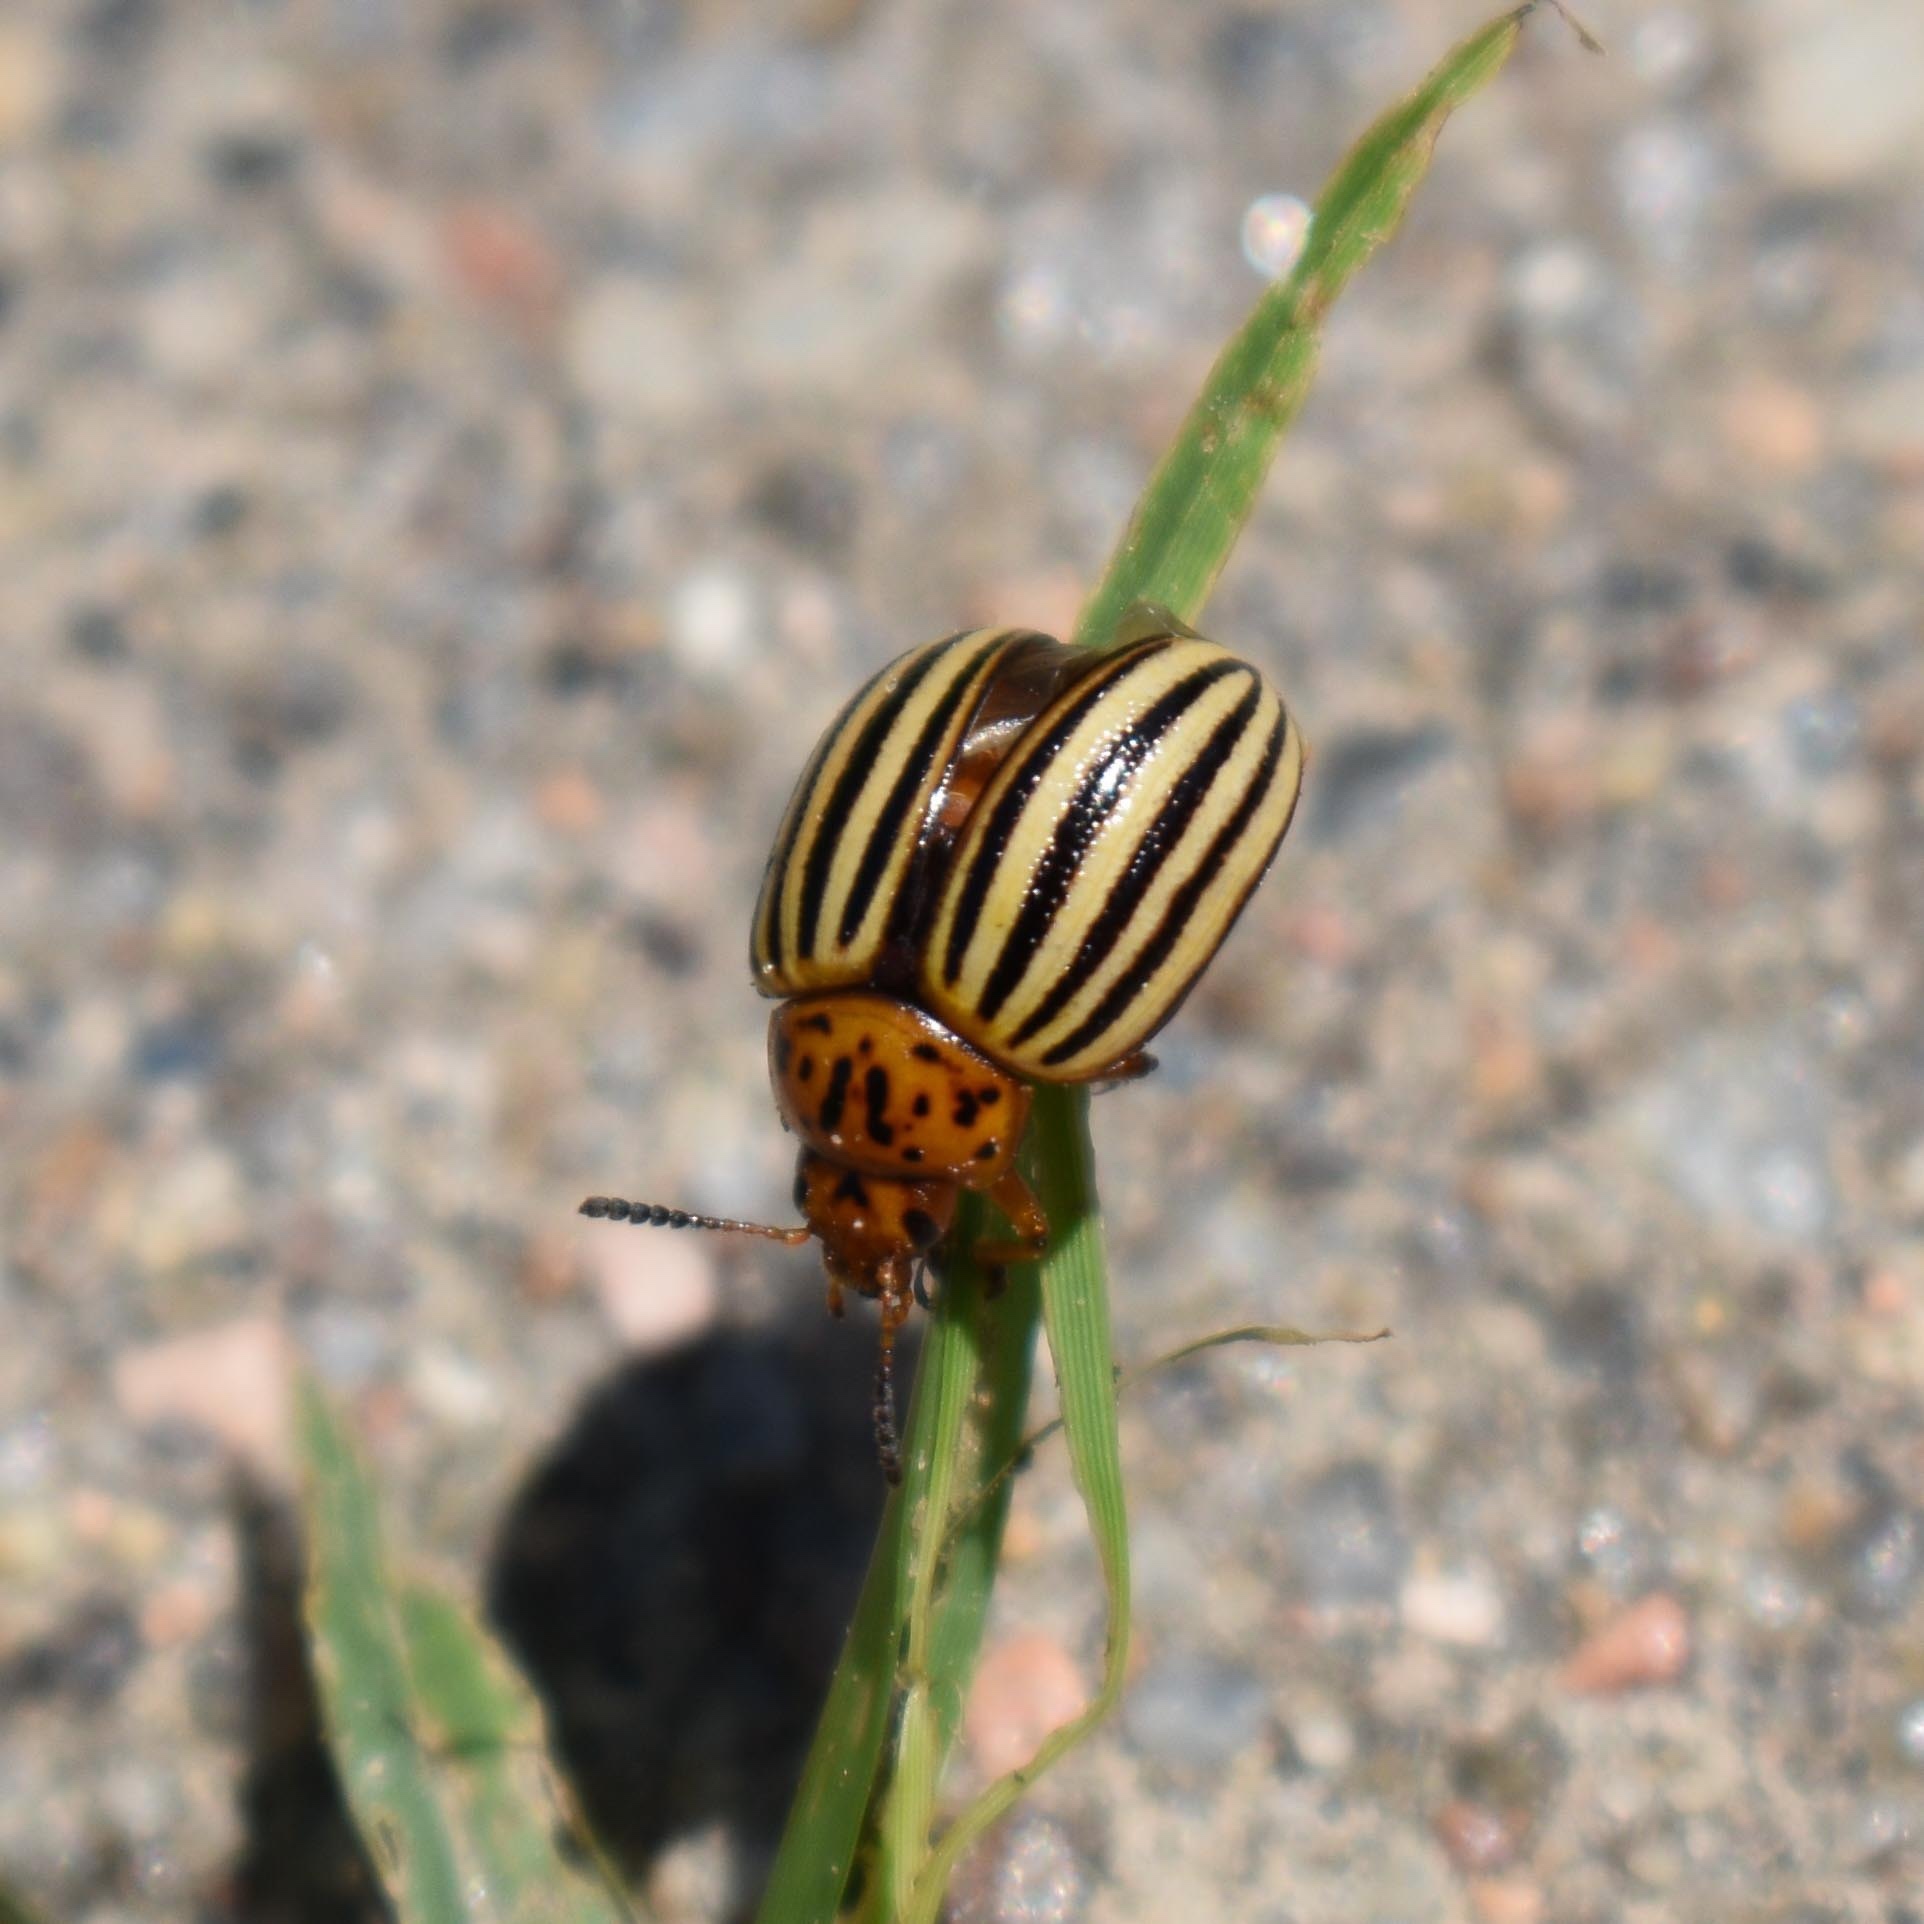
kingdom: Animalia
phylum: Arthropoda
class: Insecta
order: Coleoptera
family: Chrysomelidae
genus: Leptinotarsa
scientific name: Leptinotarsa decemlineata
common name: Colorado potato beetle
